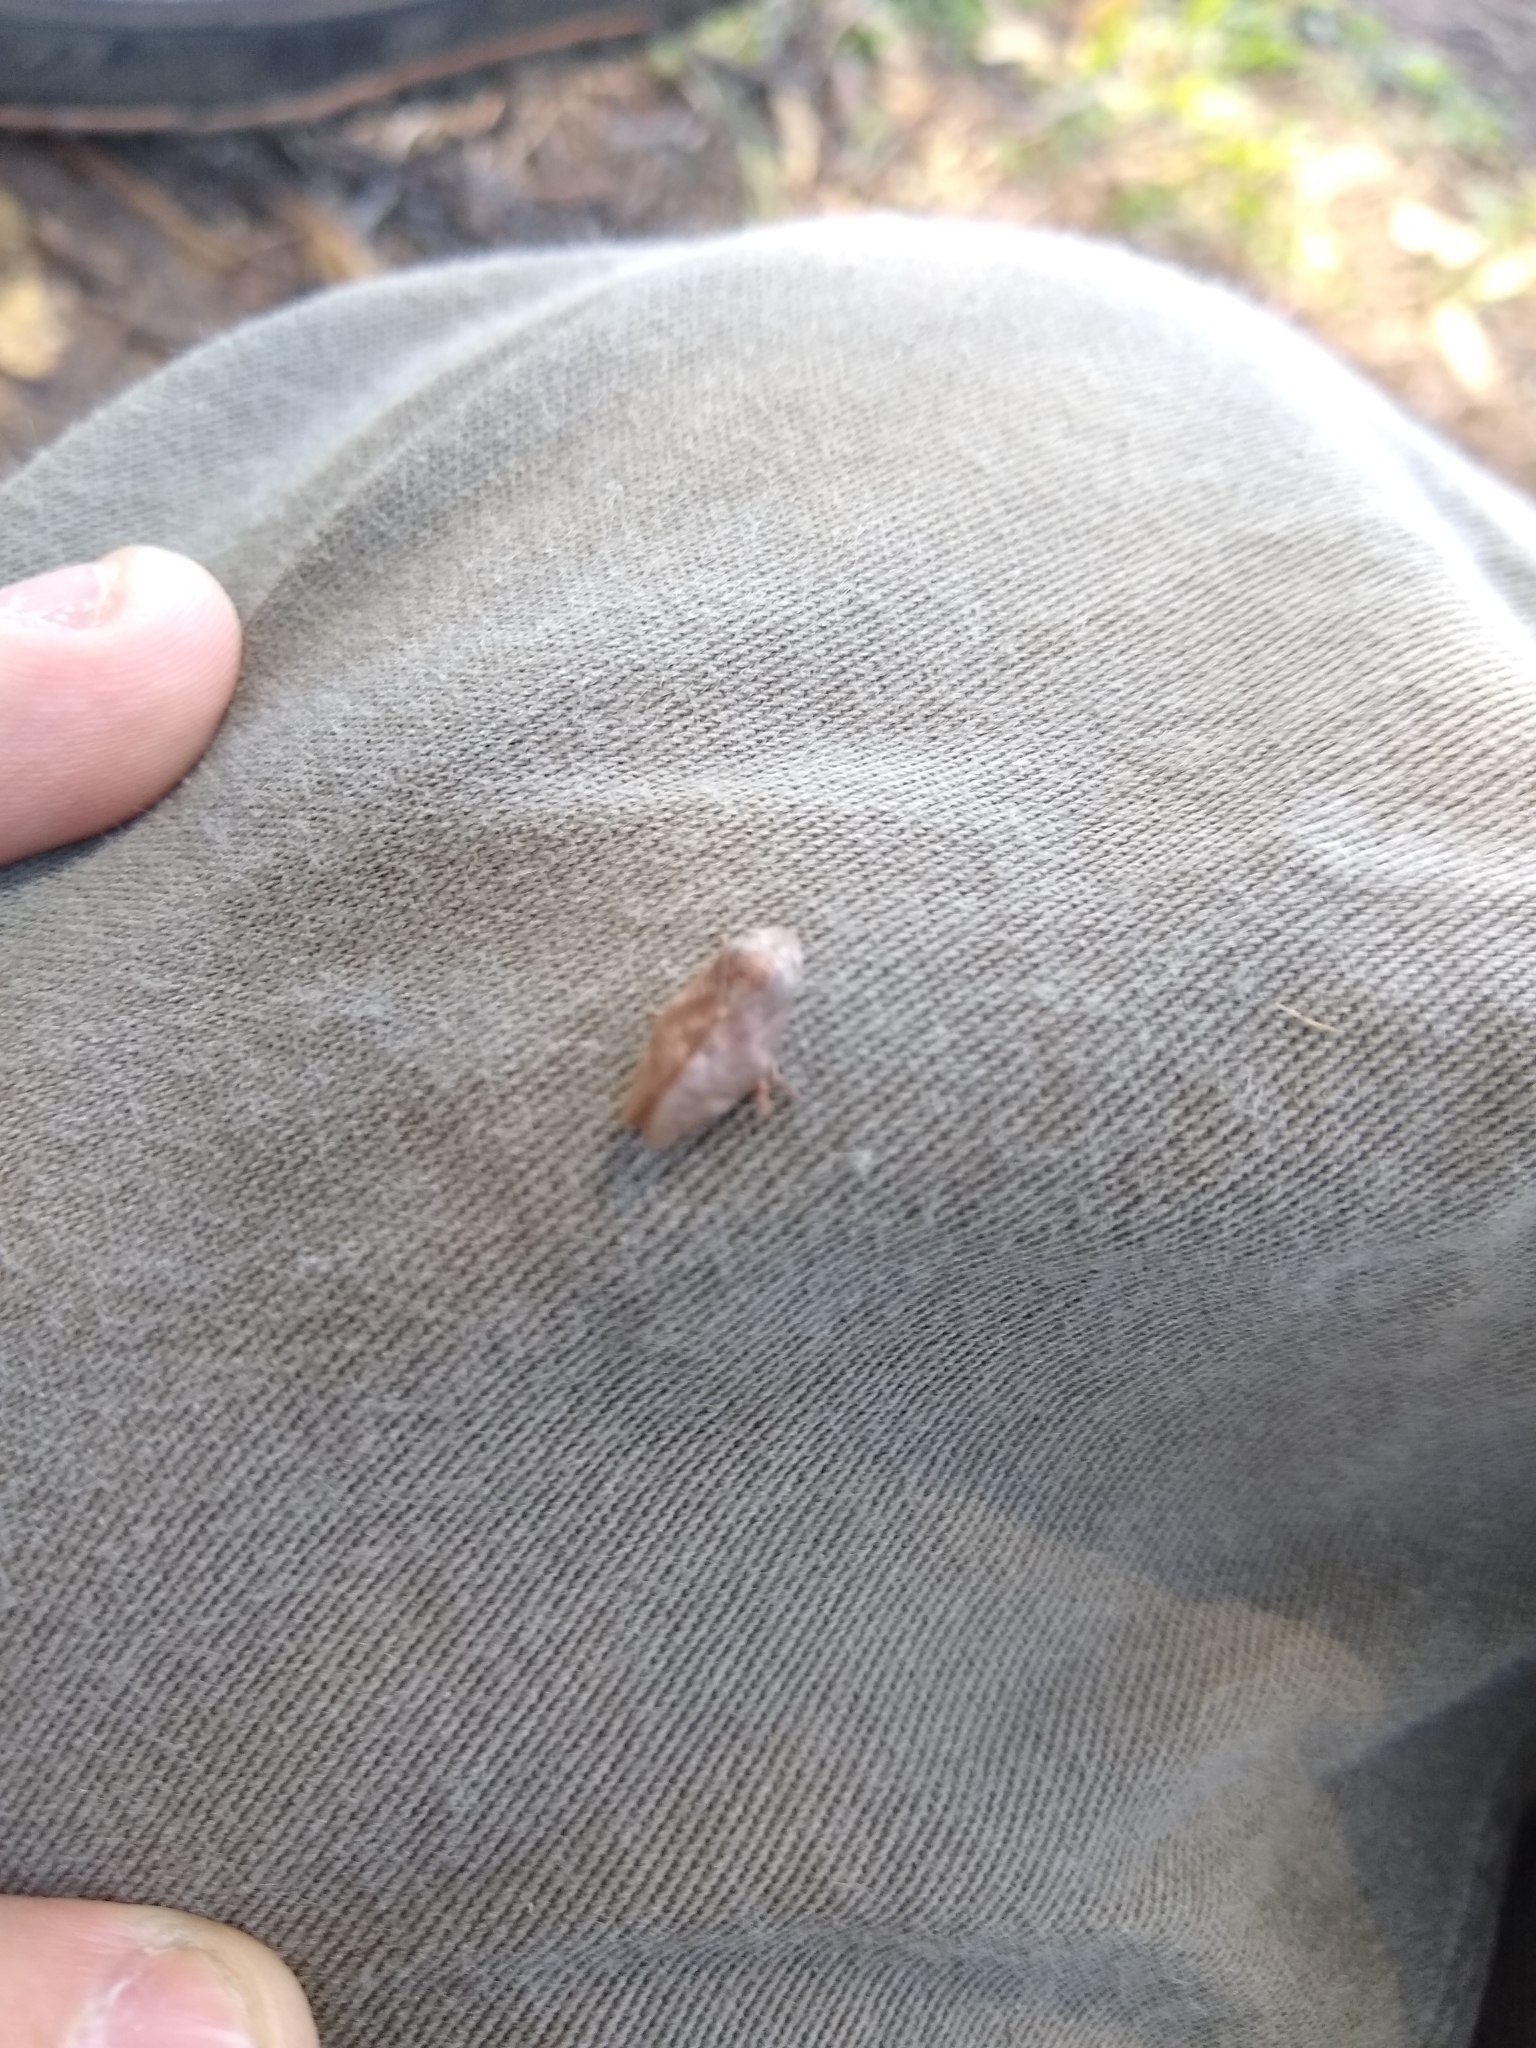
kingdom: Animalia
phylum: Arthropoda
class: Insecta
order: Hemiptera
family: Aphrophoridae
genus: Cephisus
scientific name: Cephisus siccifolius
